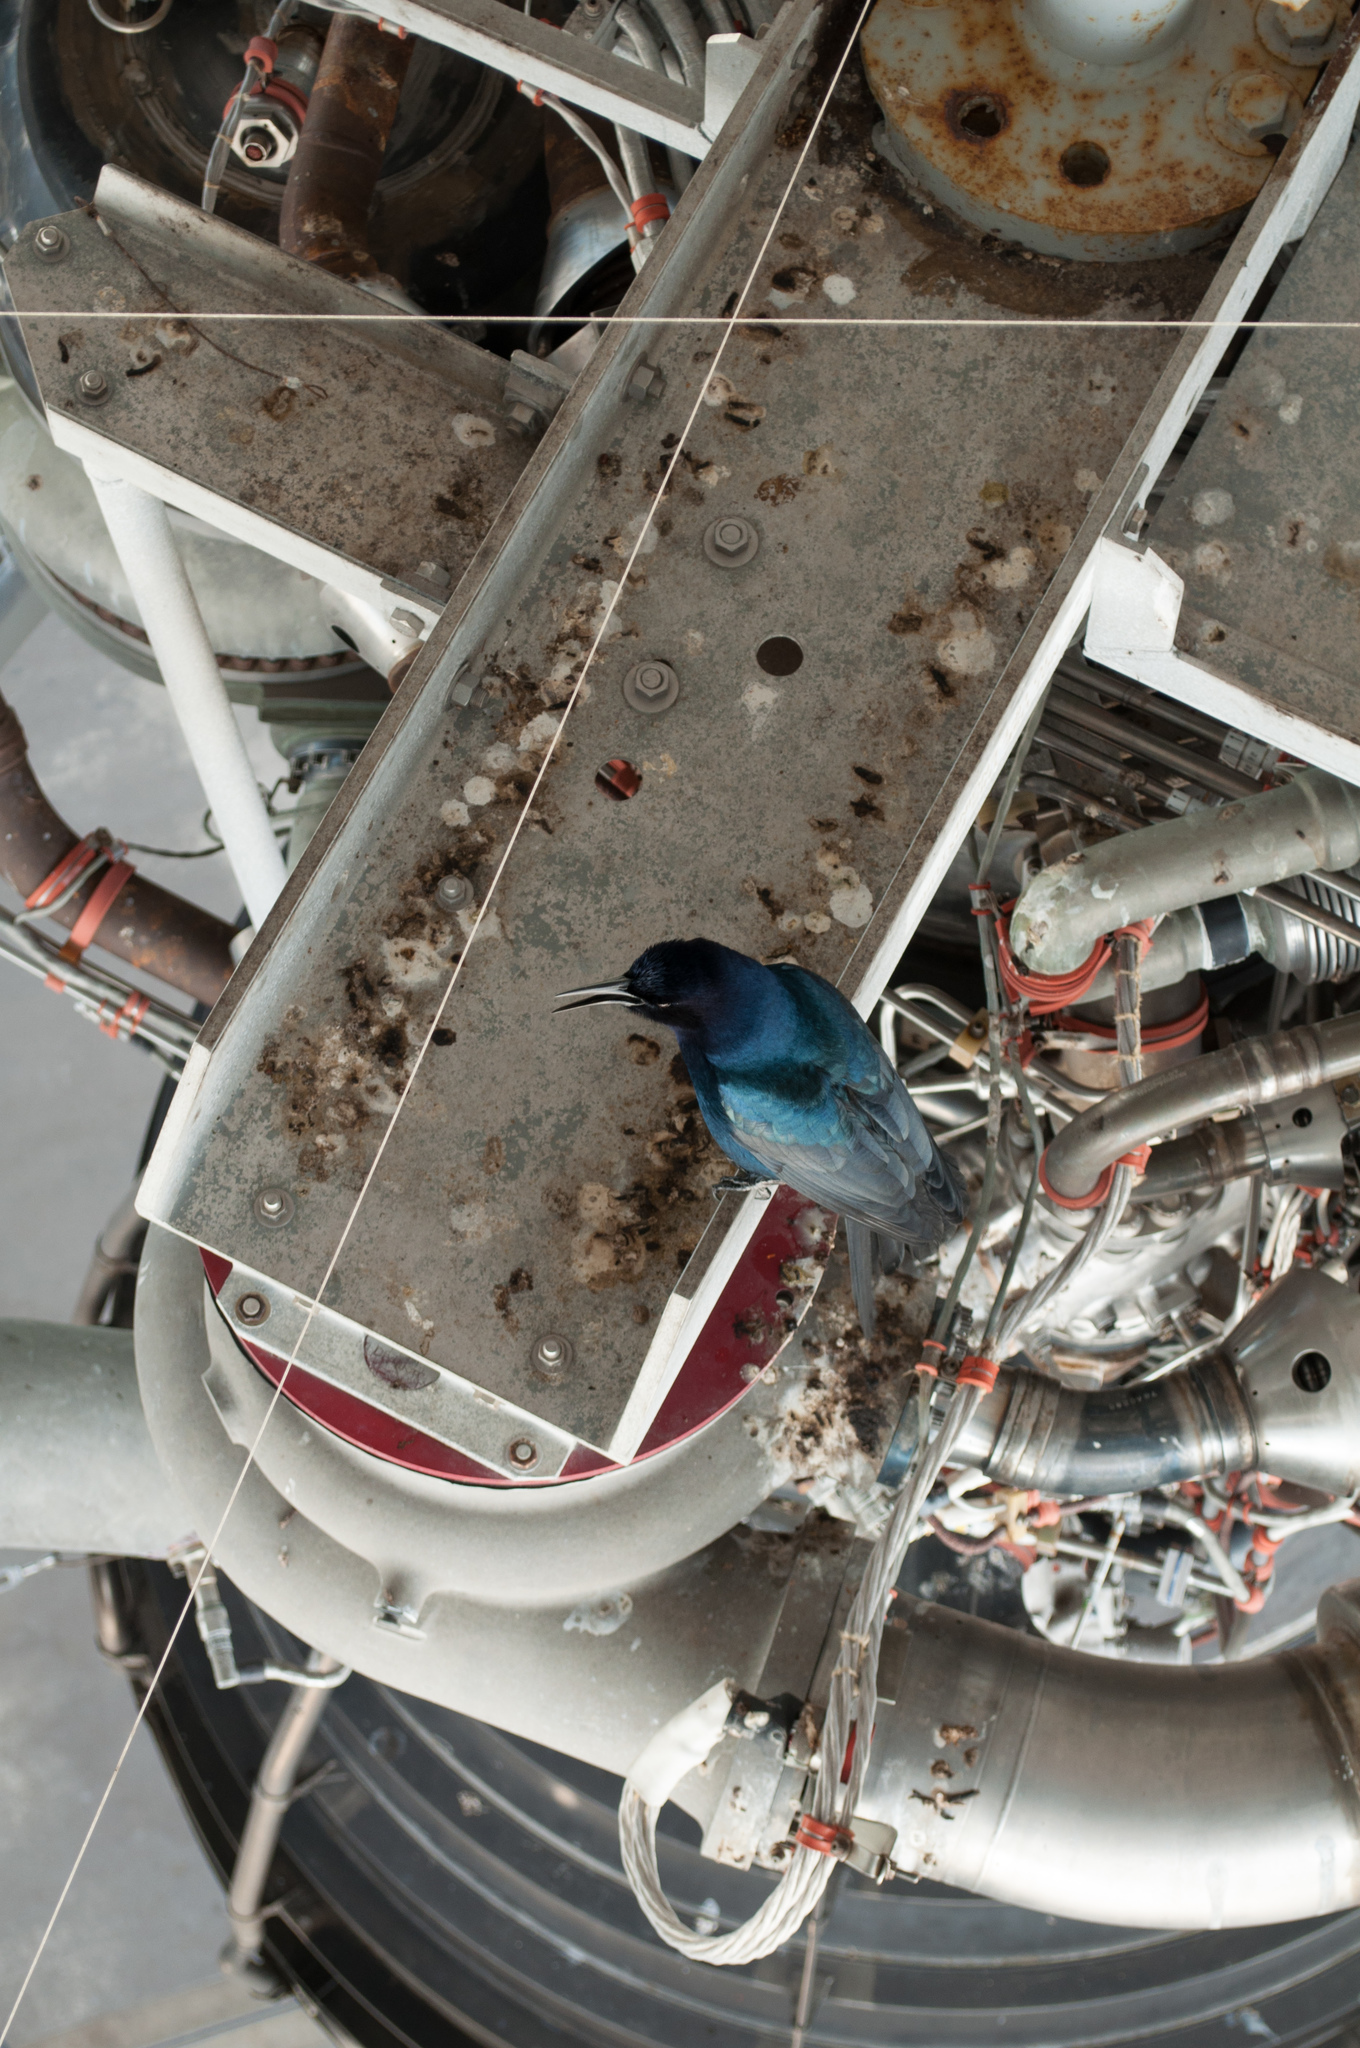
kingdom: Animalia
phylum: Chordata
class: Aves
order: Passeriformes
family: Icteridae
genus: Quiscalus
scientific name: Quiscalus major
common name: Boat-tailed grackle
